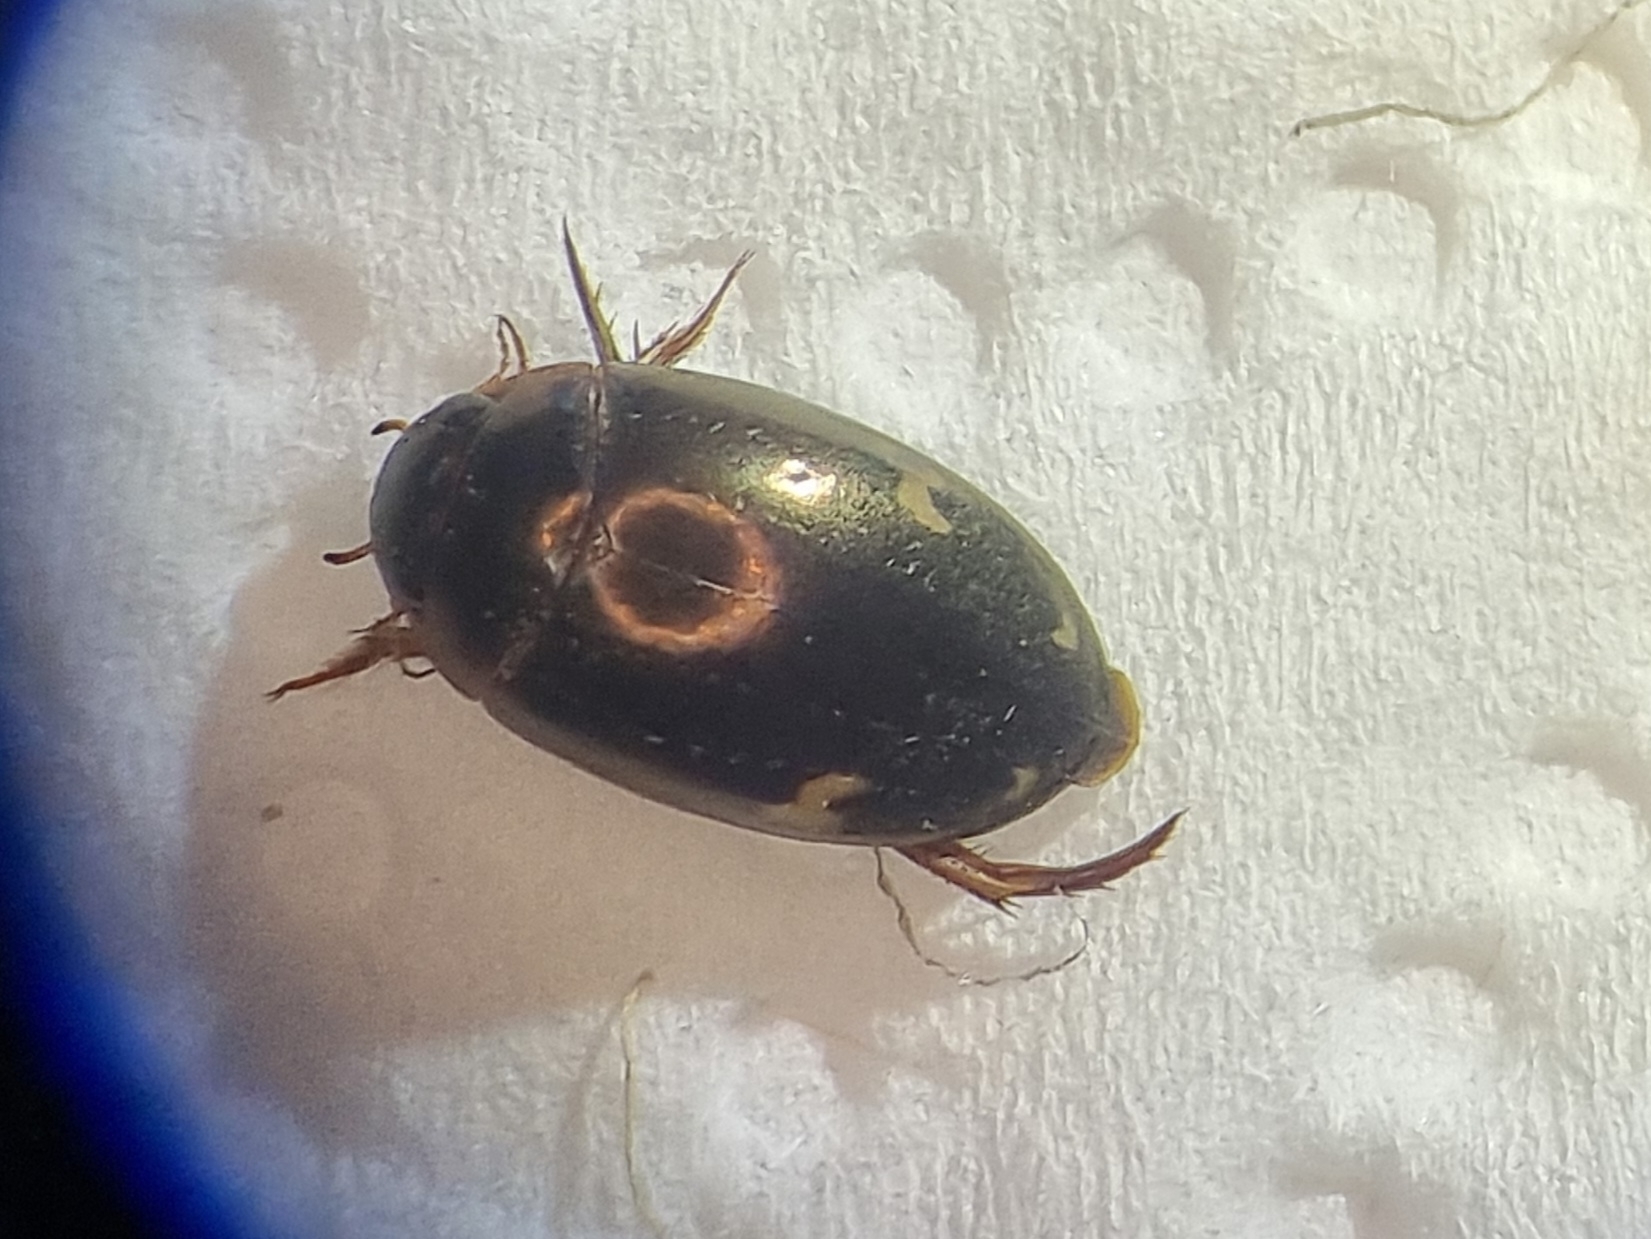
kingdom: Animalia
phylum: Arthropoda
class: Insecta
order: Coleoptera
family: Dytiscidae
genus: Agabus
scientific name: Agabus didymus
